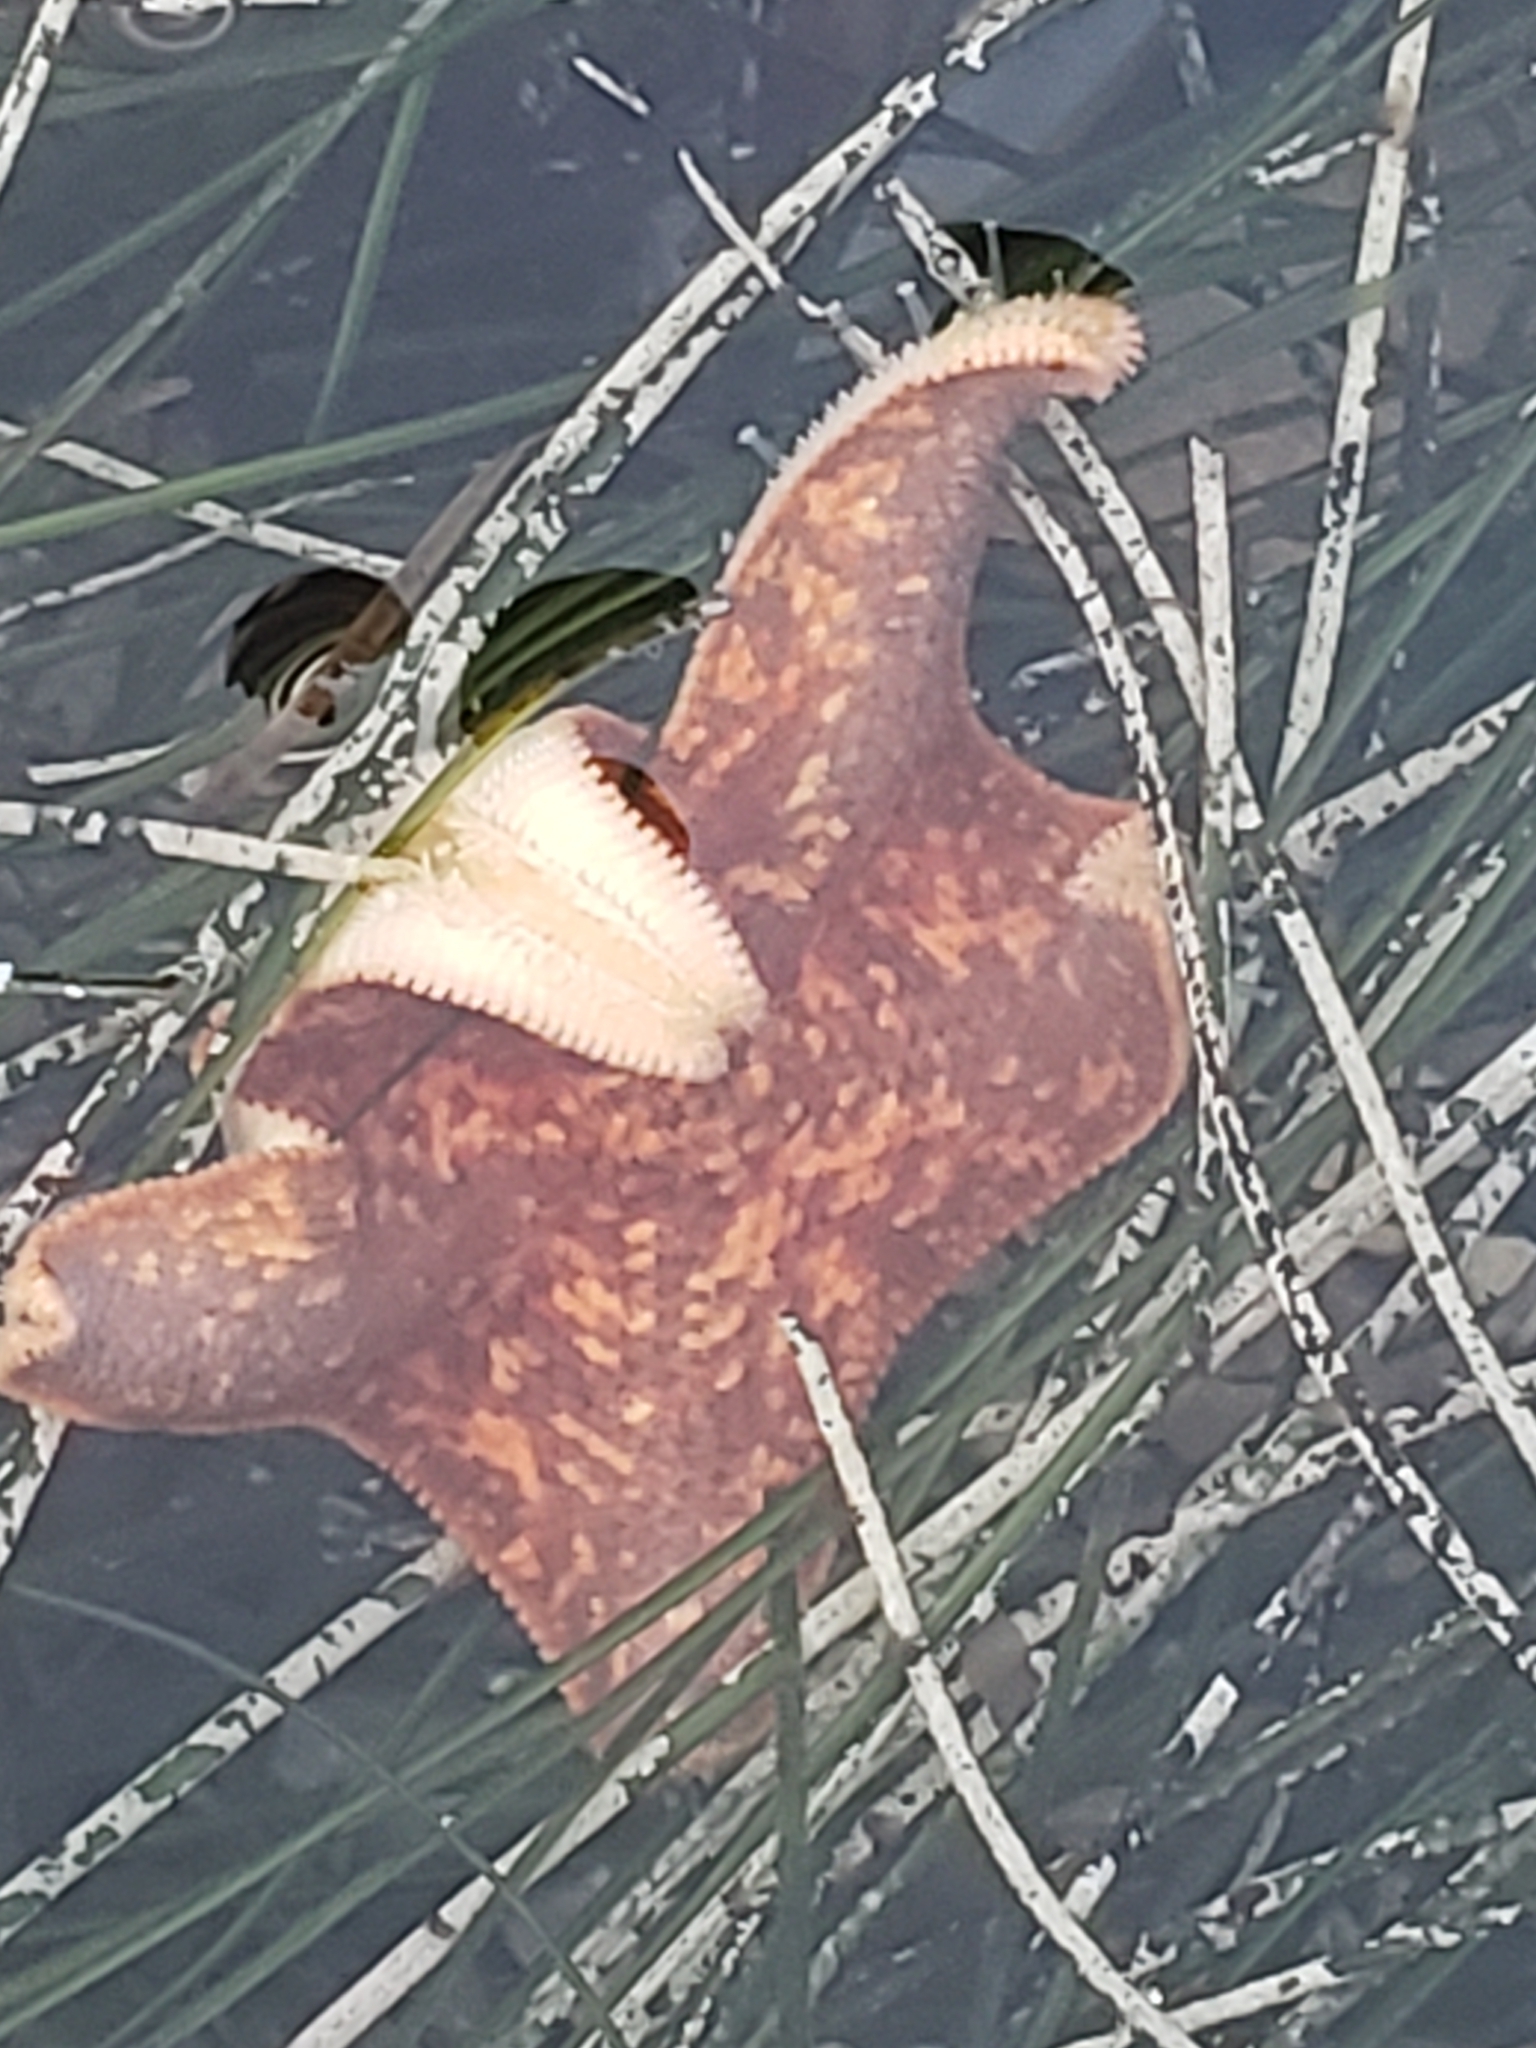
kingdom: Animalia
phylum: Echinodermata
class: Asteroidea
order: Valvatida
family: Asterinidae
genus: Patiria
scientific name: Patiria miniata
